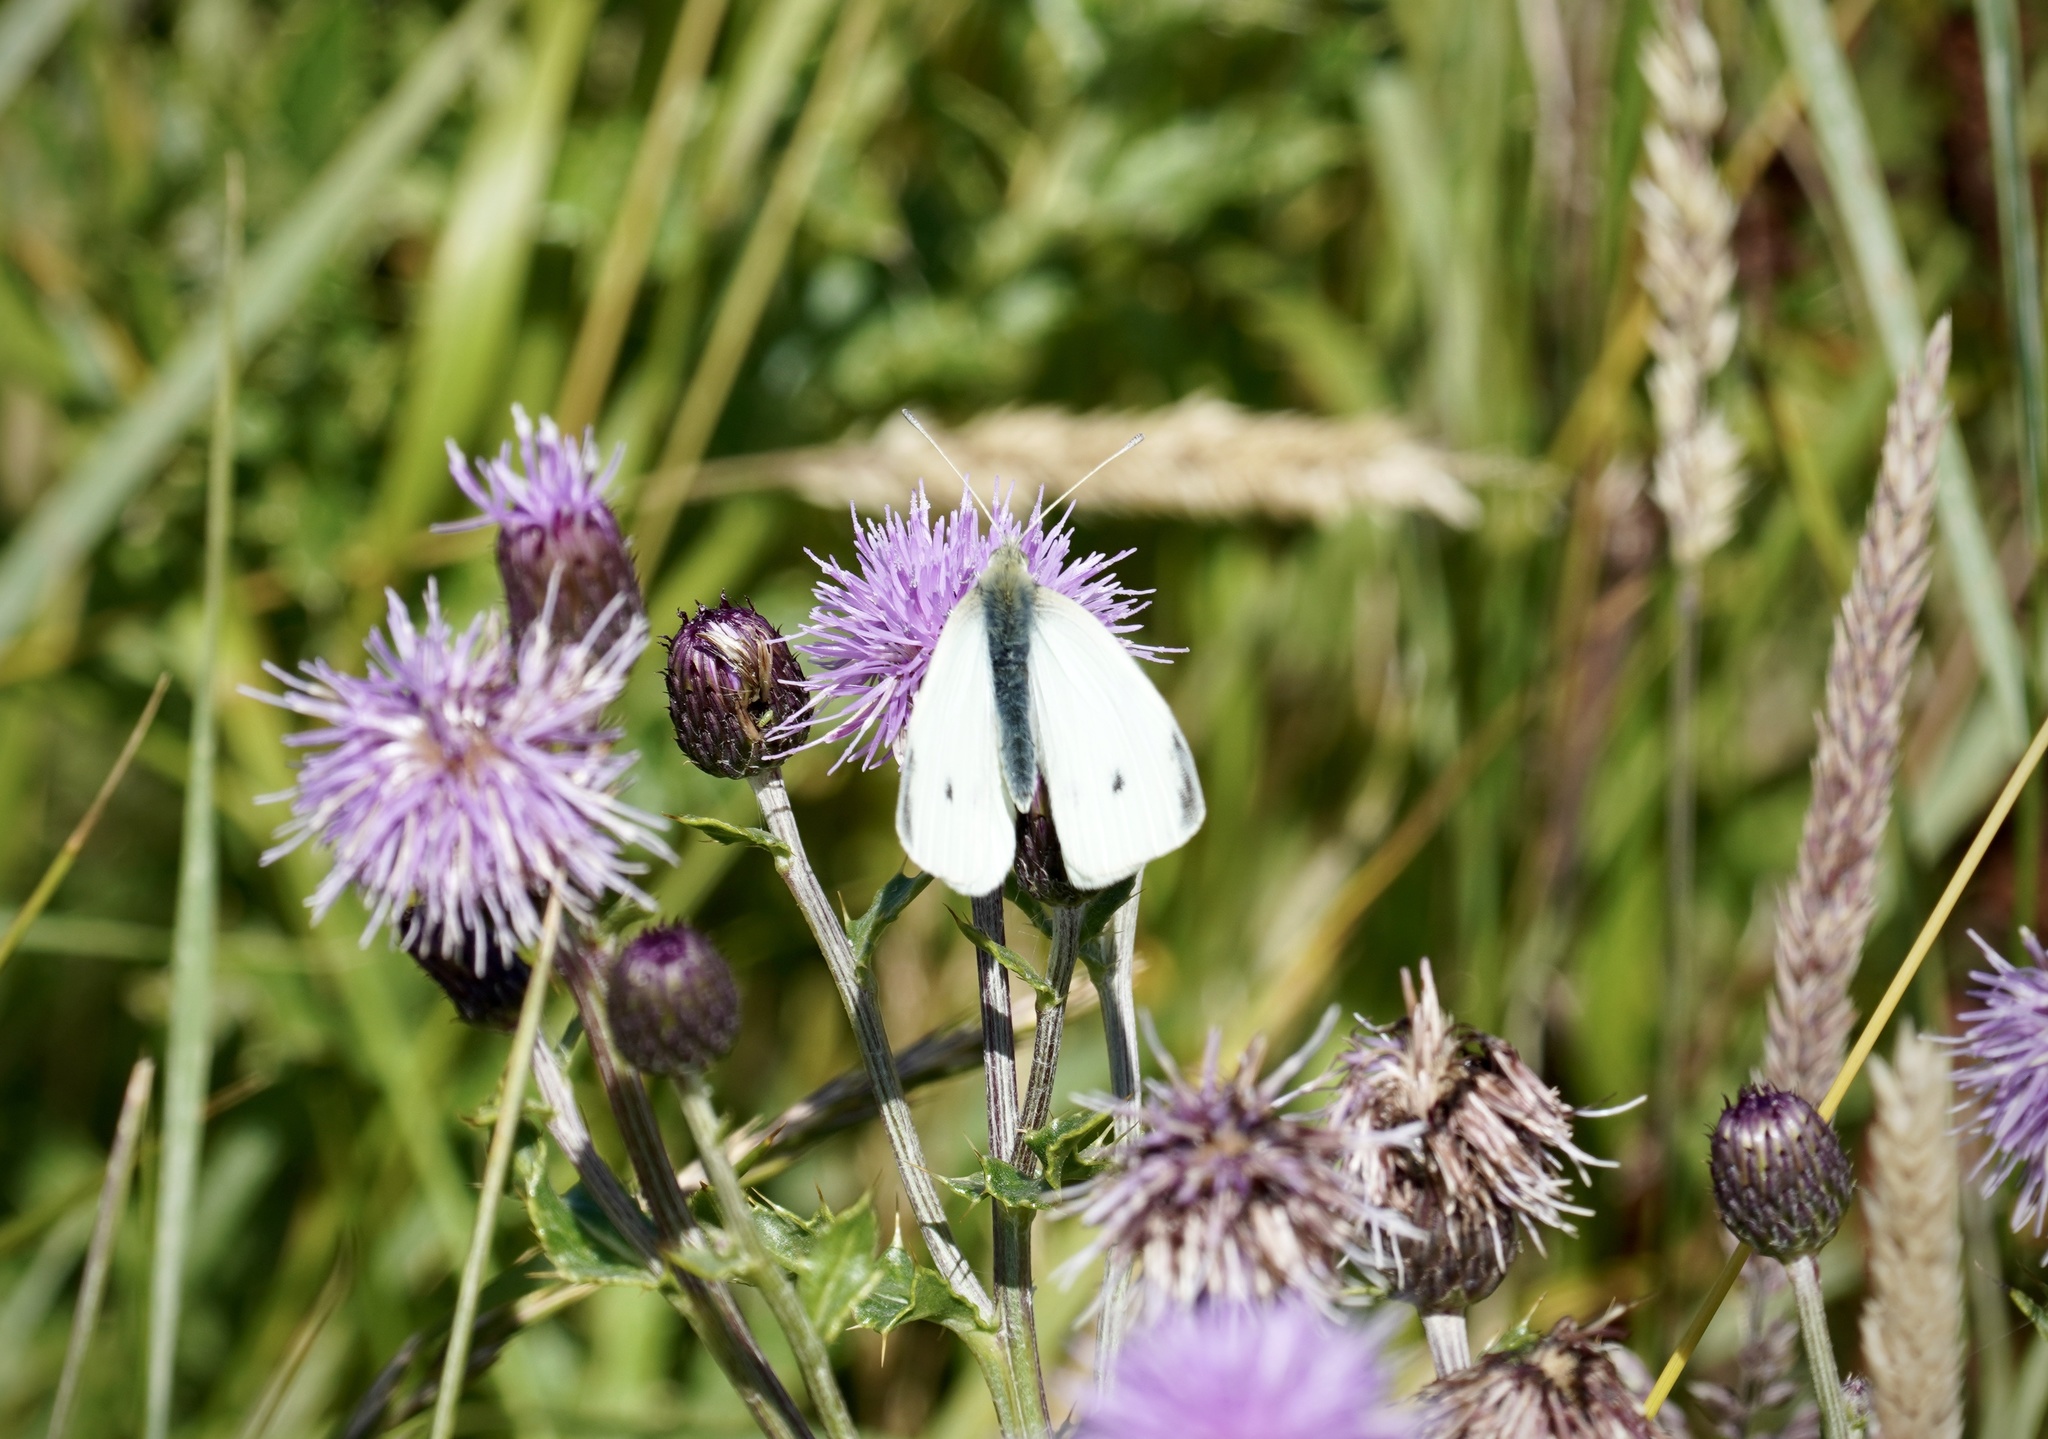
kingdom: Animalia
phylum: Arthropoda
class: Insecta
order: Lepidoptera
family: Pieridae
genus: Pieris
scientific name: Pieris rapae
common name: Small white
